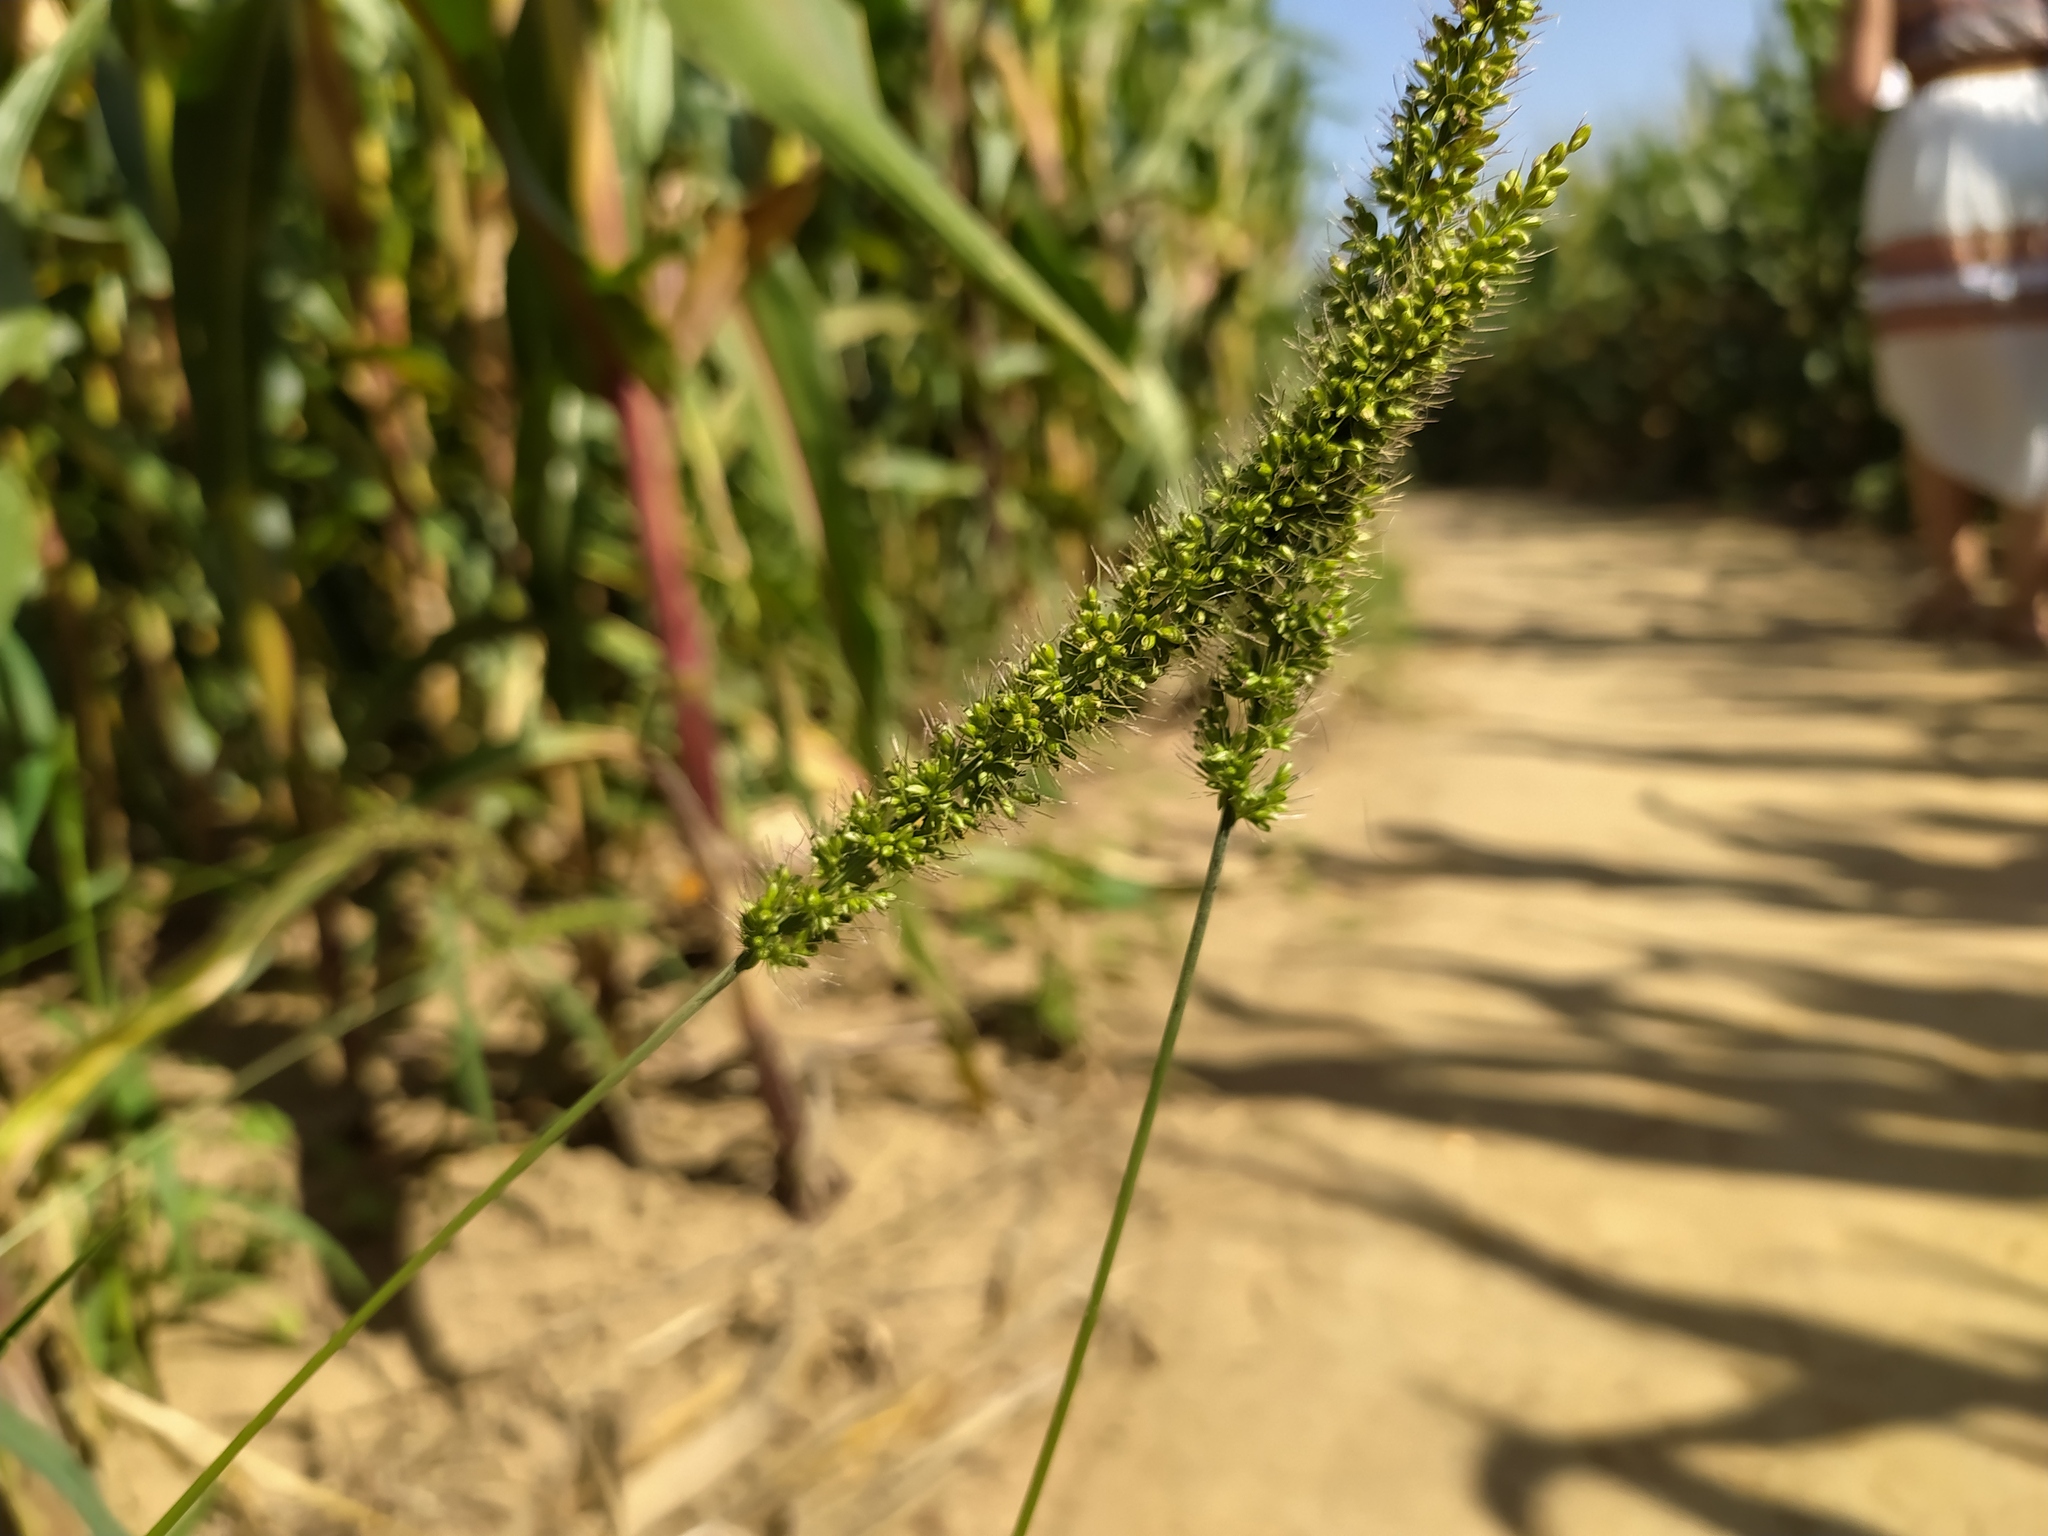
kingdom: Plantae
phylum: Tracheophyta
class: Liliopsida
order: Poales
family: Poaceae
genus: Setaria
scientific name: Setaria verticillata
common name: Hooked bristlegrass
